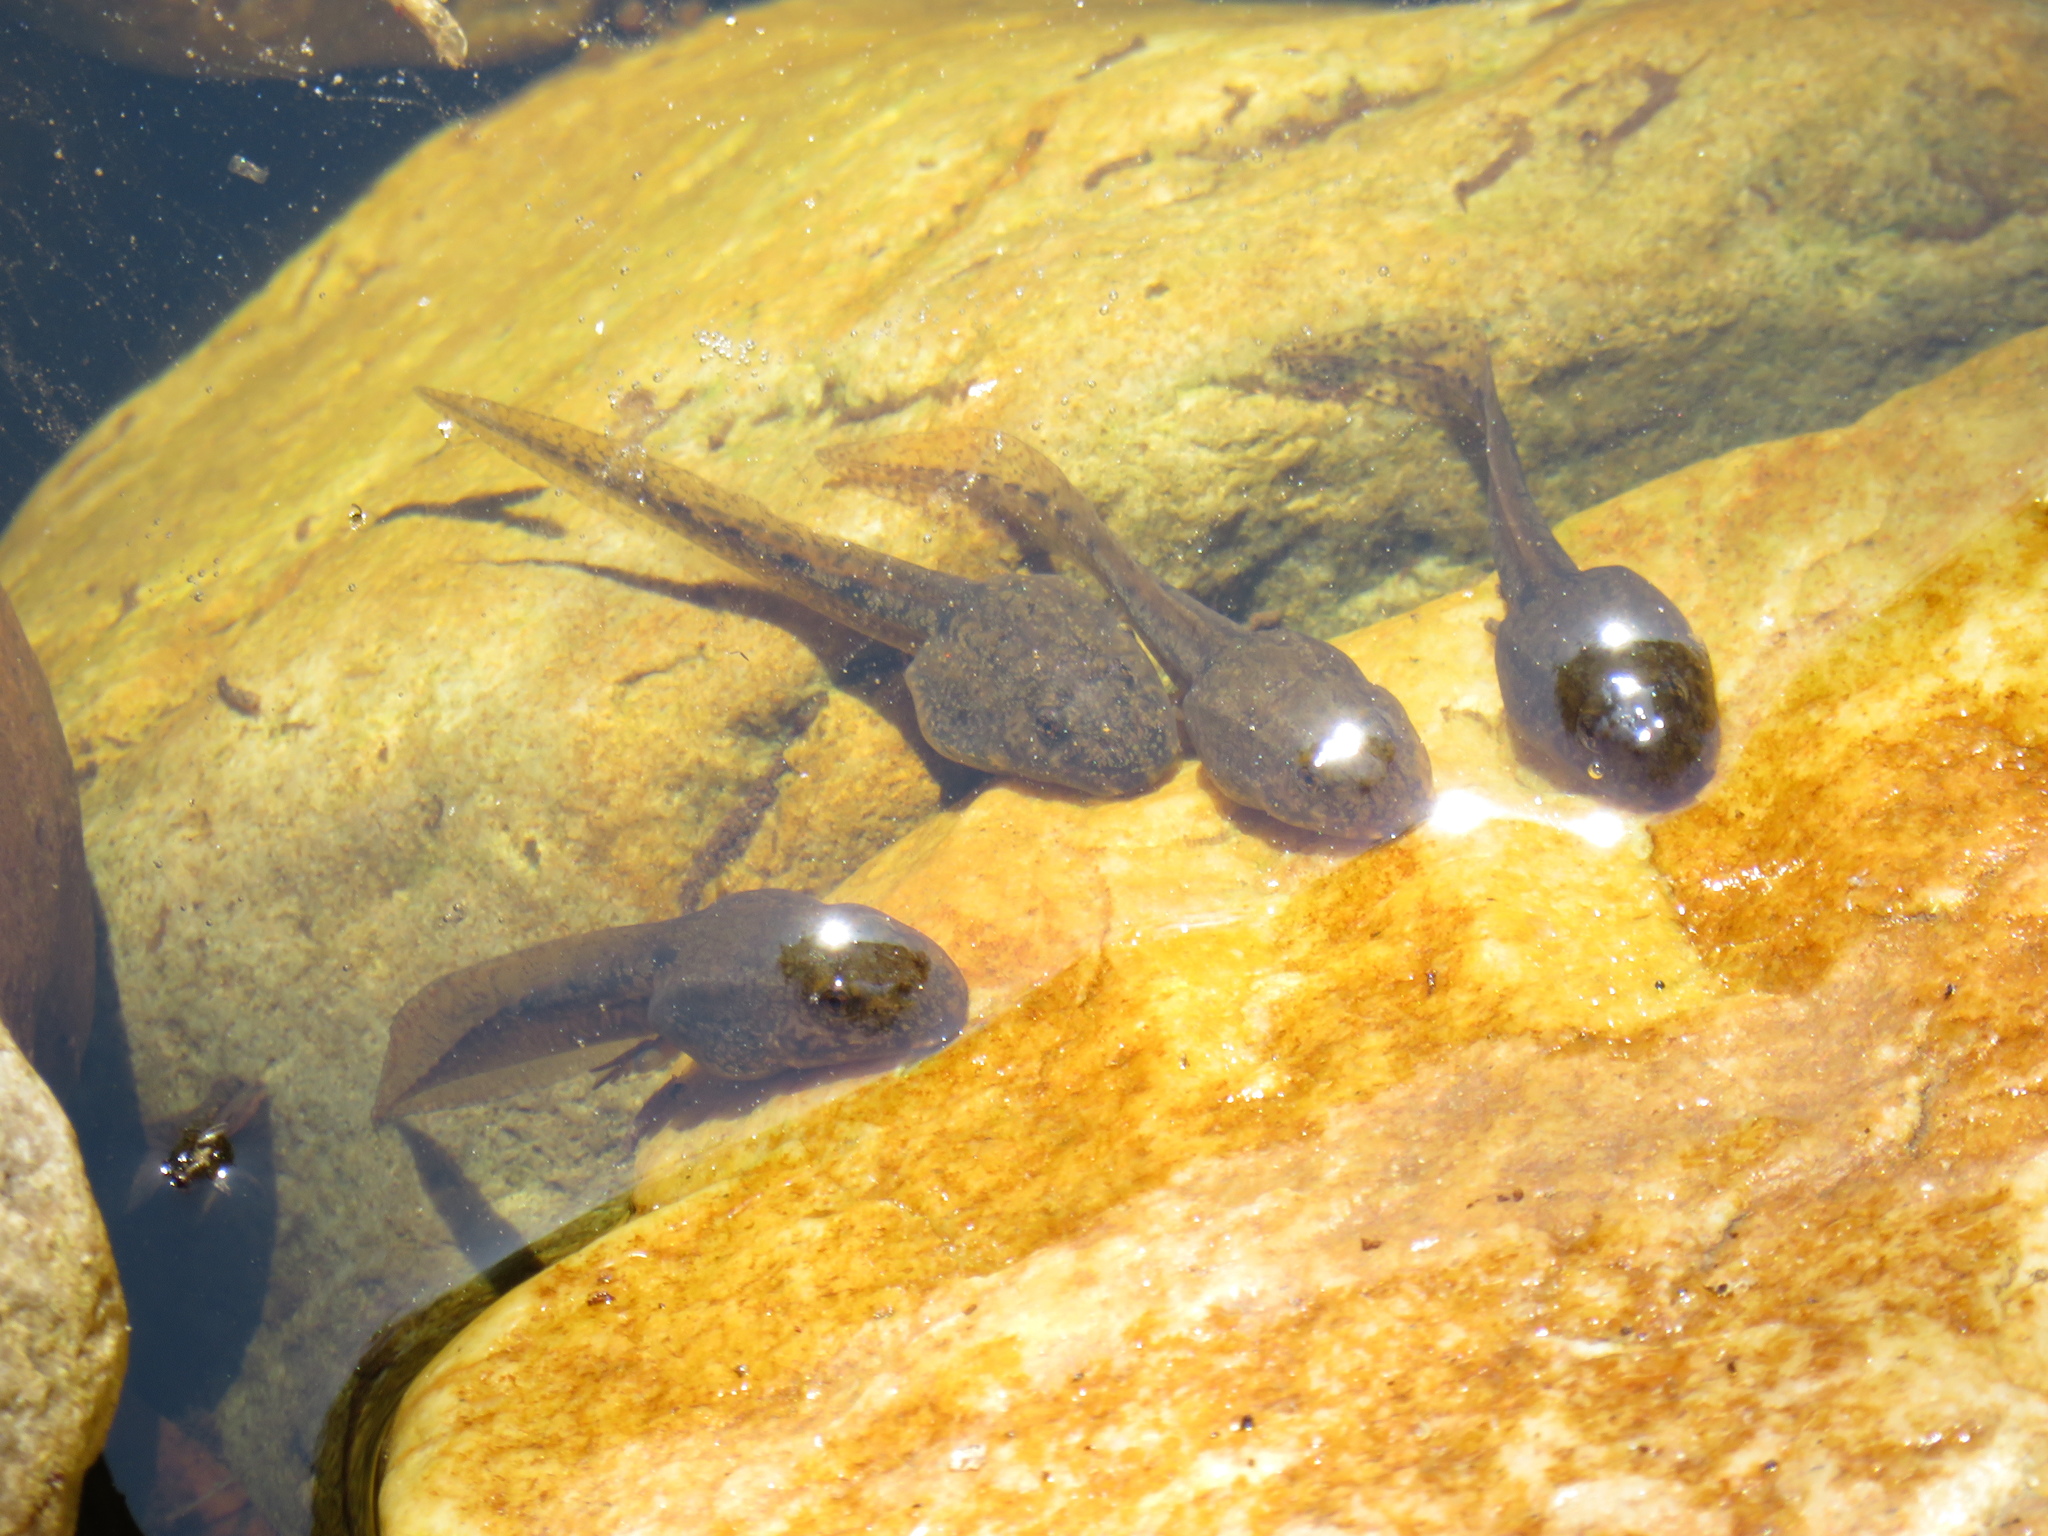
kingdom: Animalia
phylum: Chordata
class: Amphibia
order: Anura
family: Pyxicephalidae
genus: Amietia
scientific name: Amietia fuscigula
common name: Cape rana
